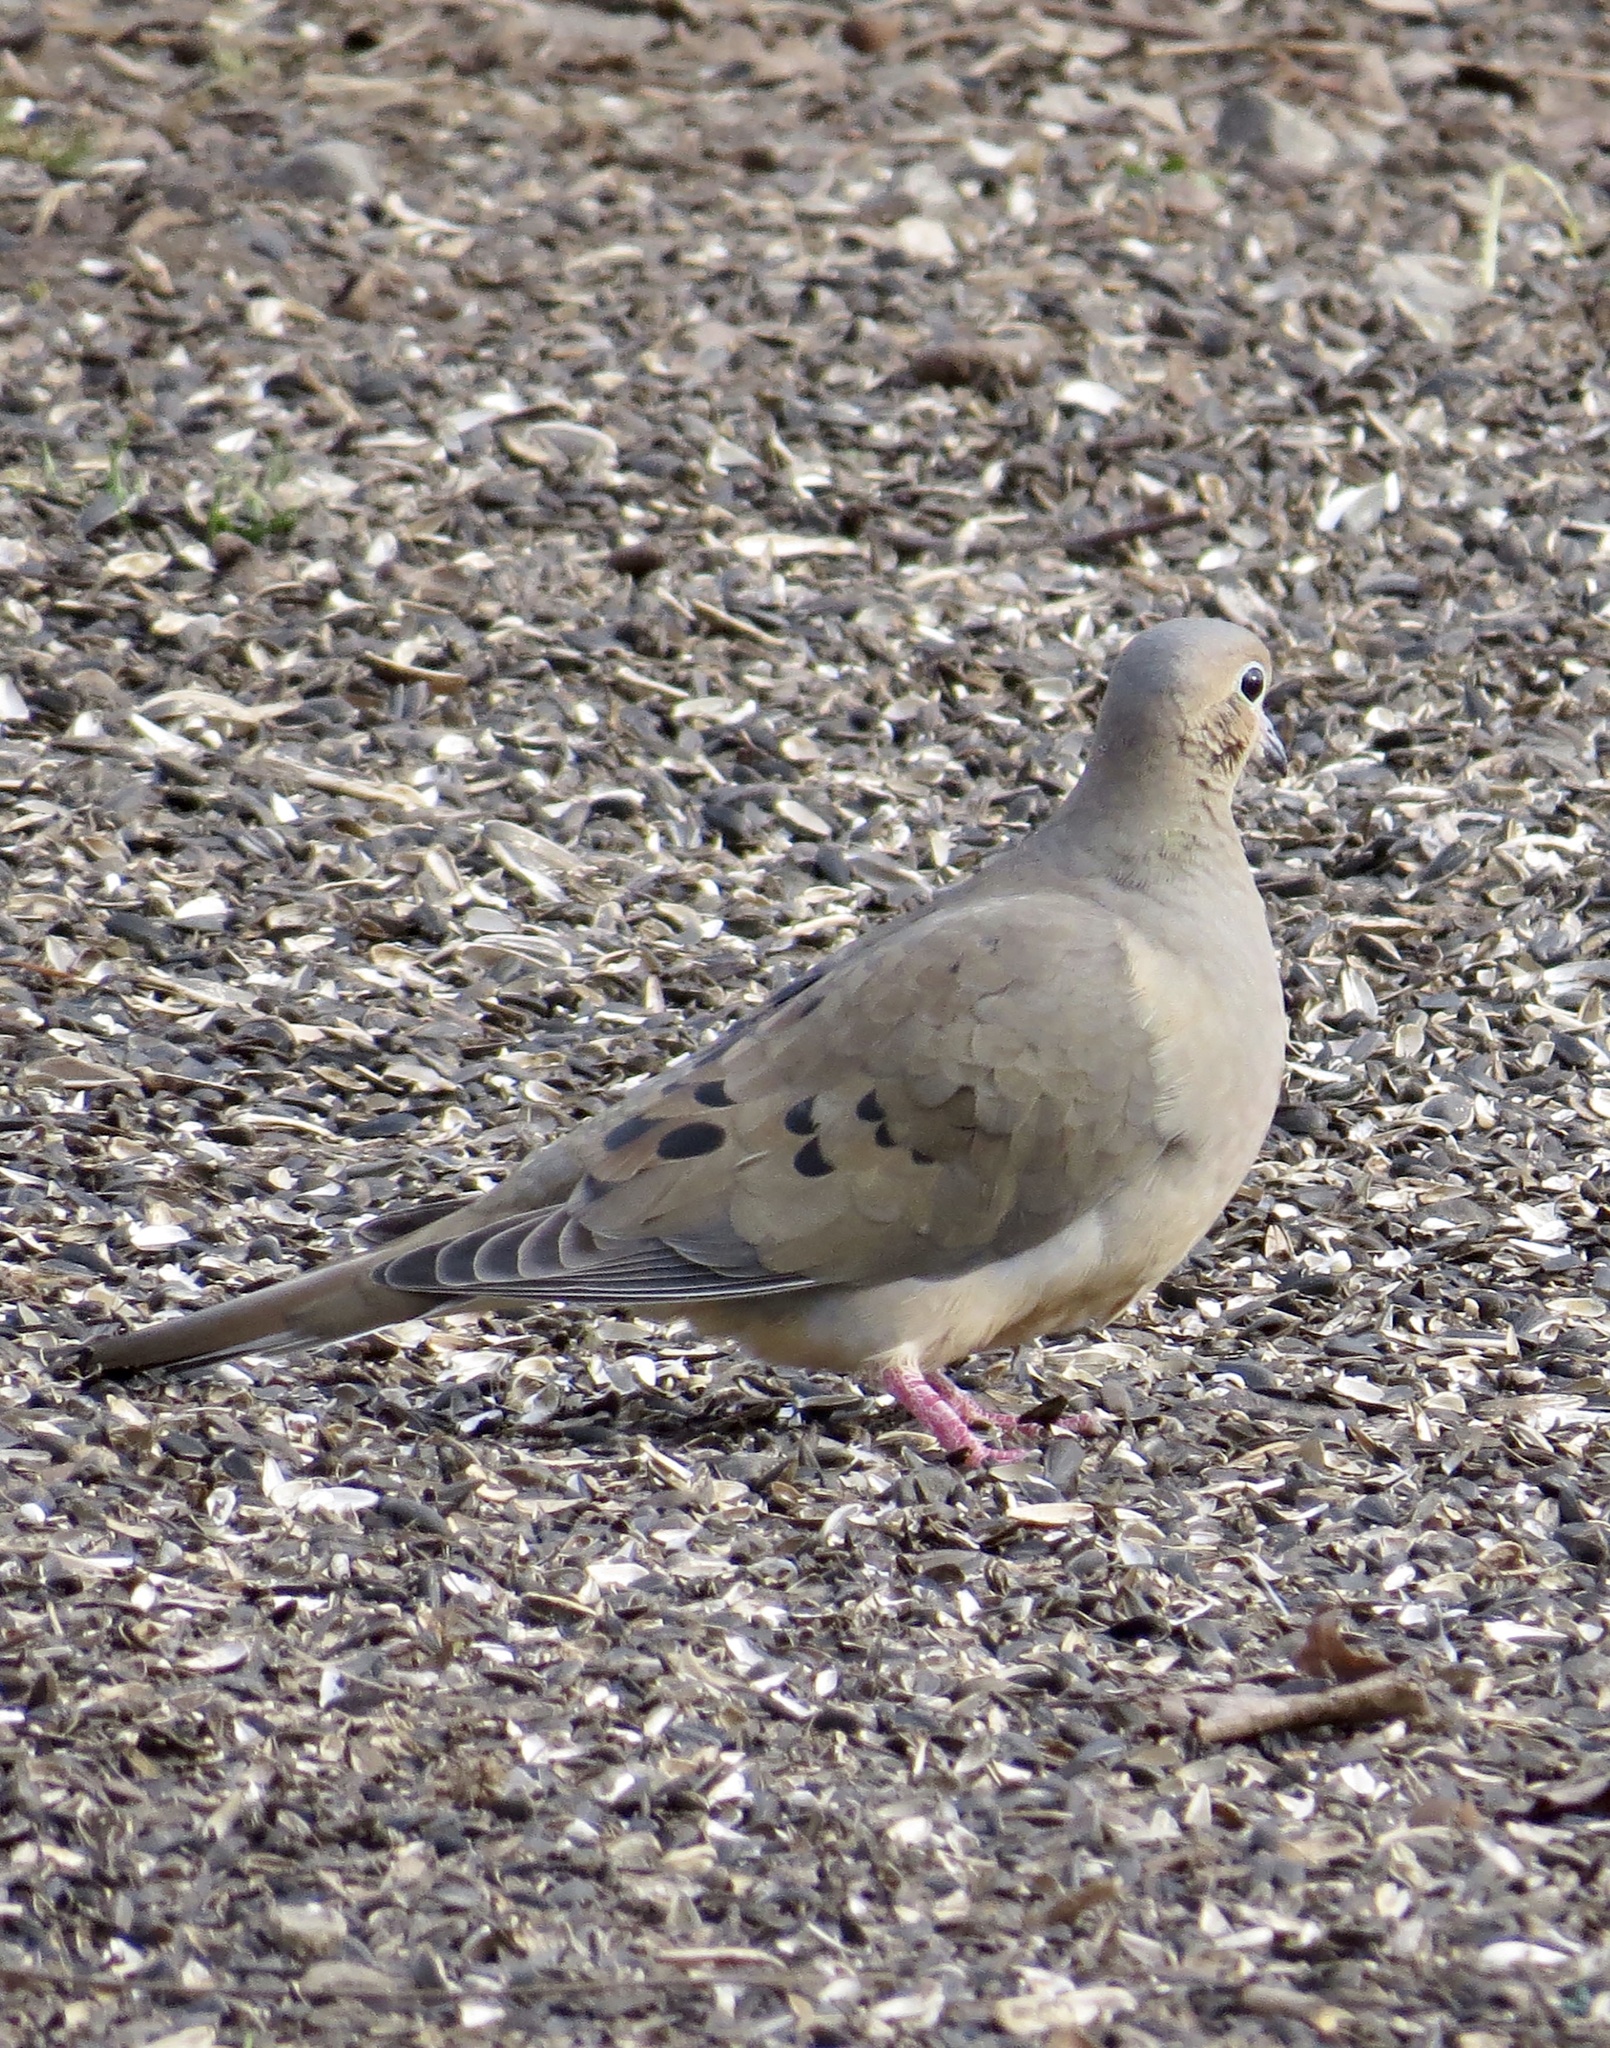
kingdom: Animalia
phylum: Chordata
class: Aves
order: Columbiformes
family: Columbidae
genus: Zenaida
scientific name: Zenaida macroura
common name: Mourning dove
